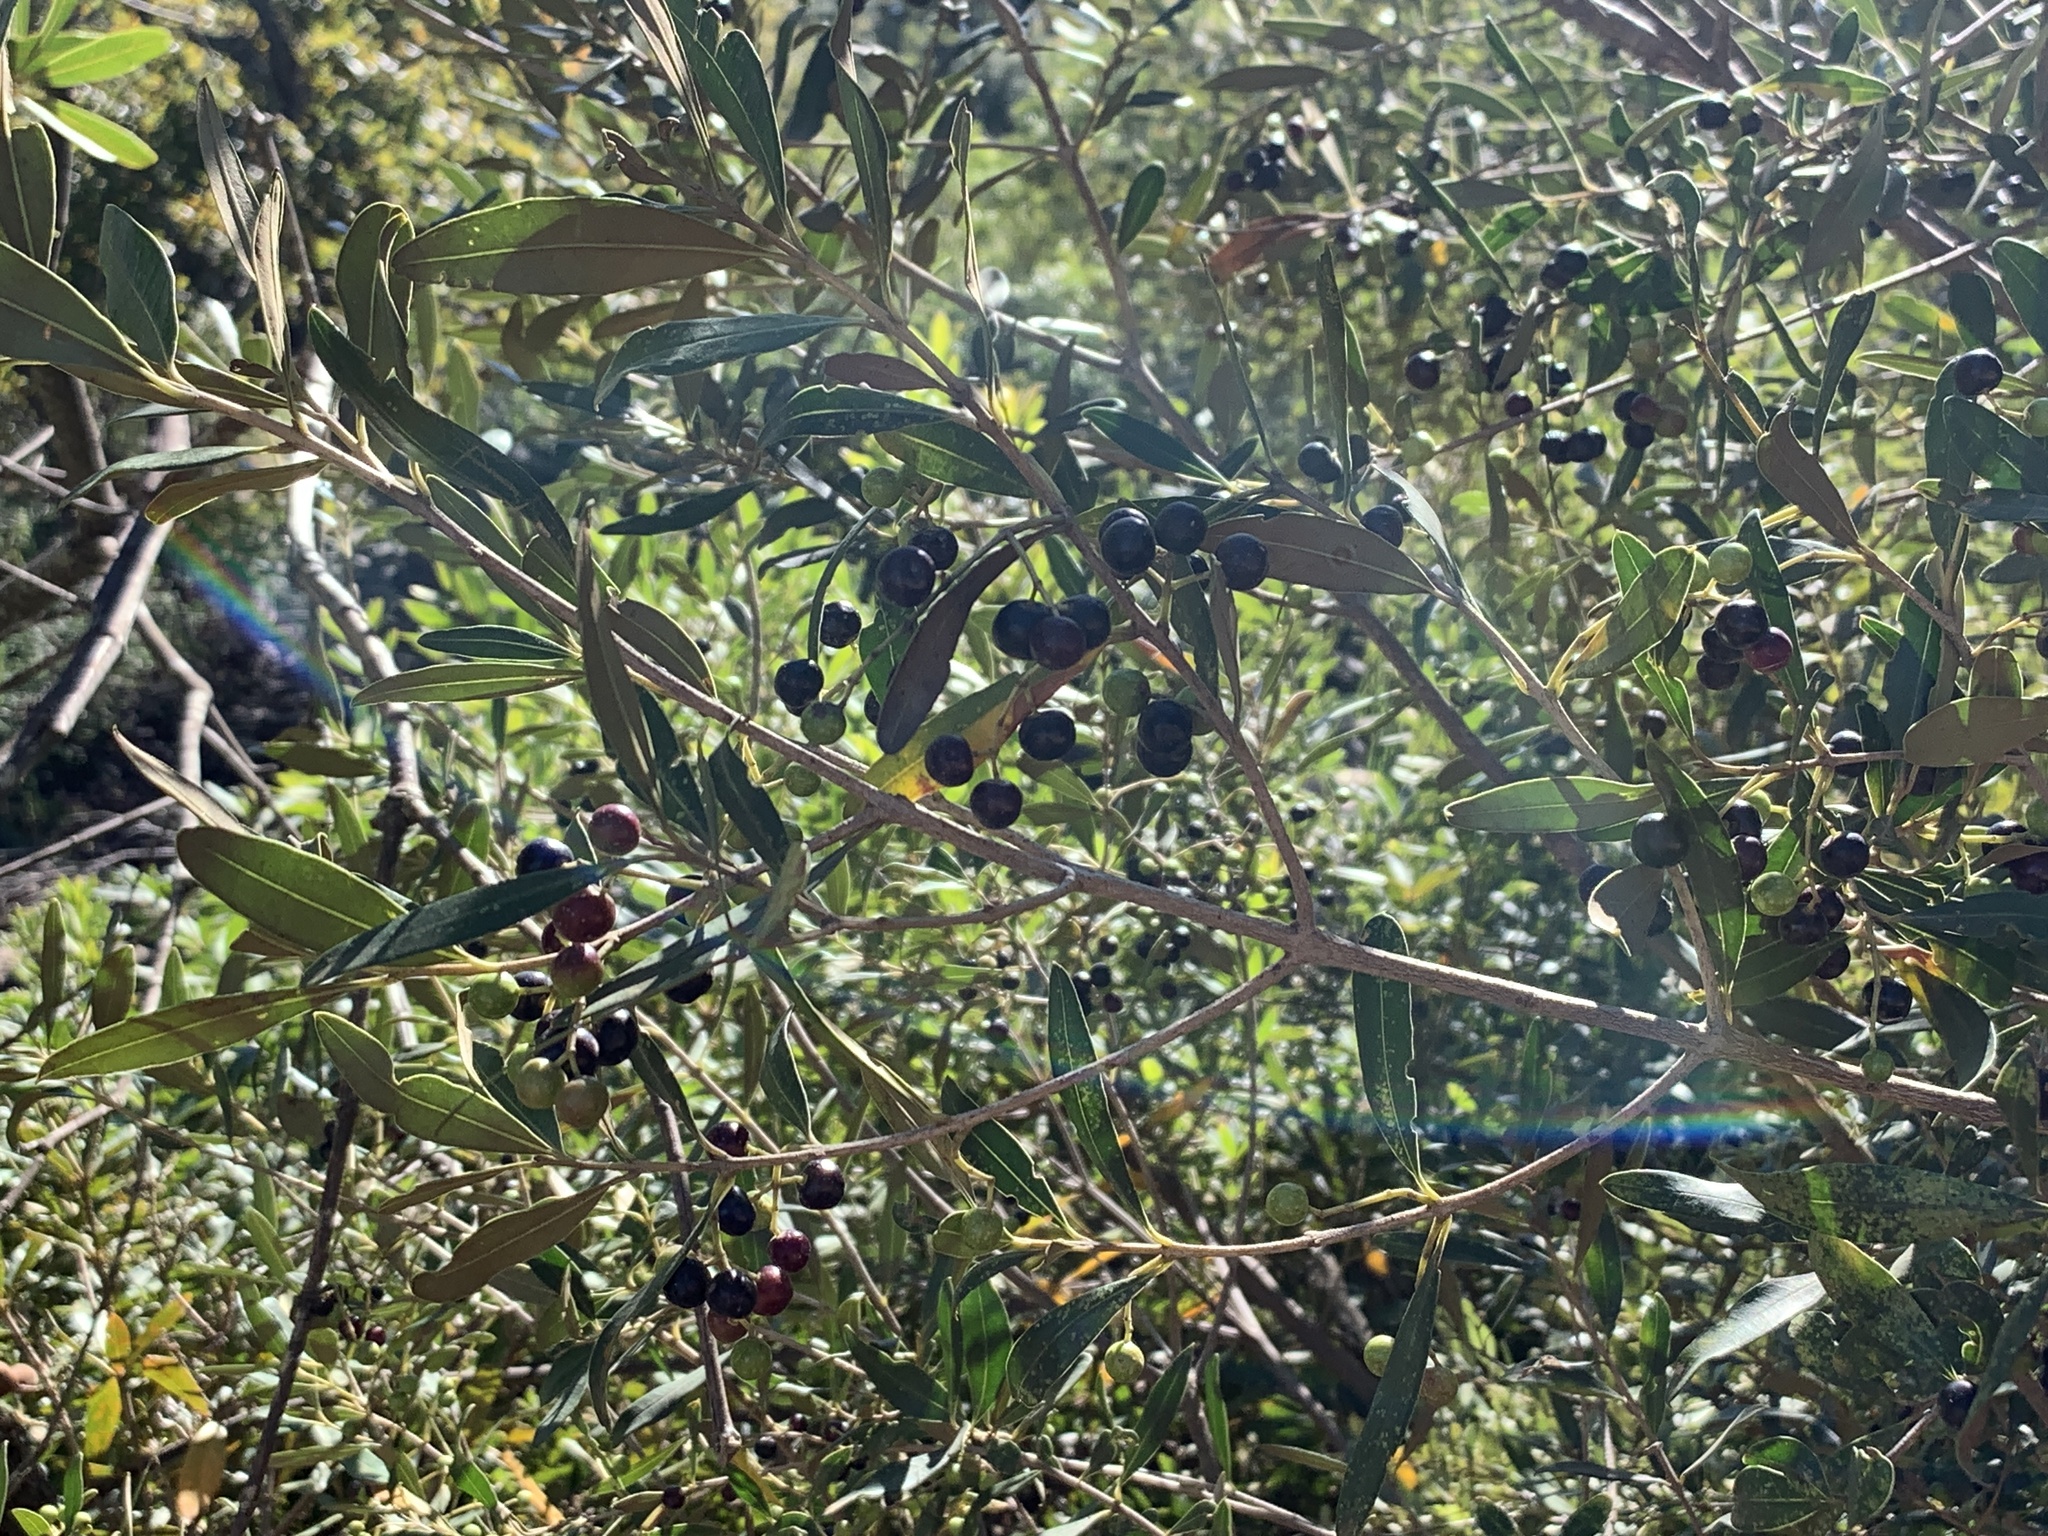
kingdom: Plantae
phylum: Tracheophyta
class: Magnoliopsida
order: Lamiales
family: Oleaceae
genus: Olea
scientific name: Olea europaea
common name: Olive
